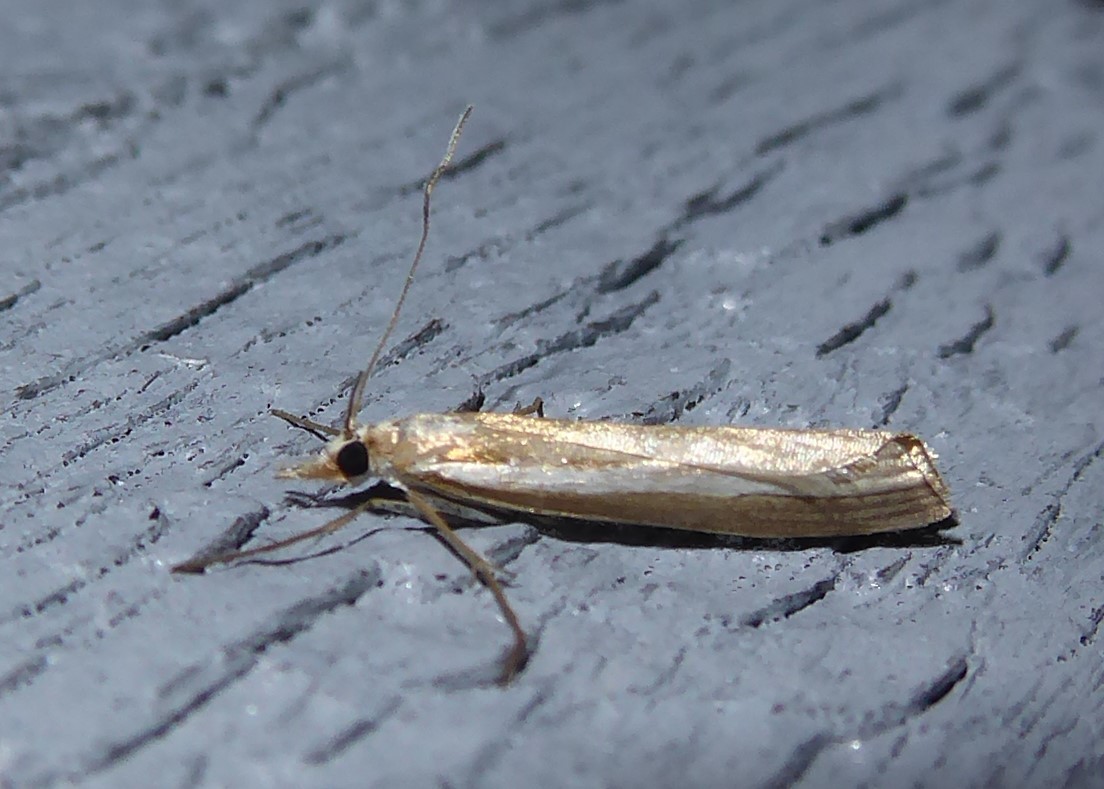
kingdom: Animalia
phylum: Arthropoda
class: Insecta
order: Lepidoptera
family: Crambidae
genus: Orocrambus
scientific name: Orocrambus vittellus
